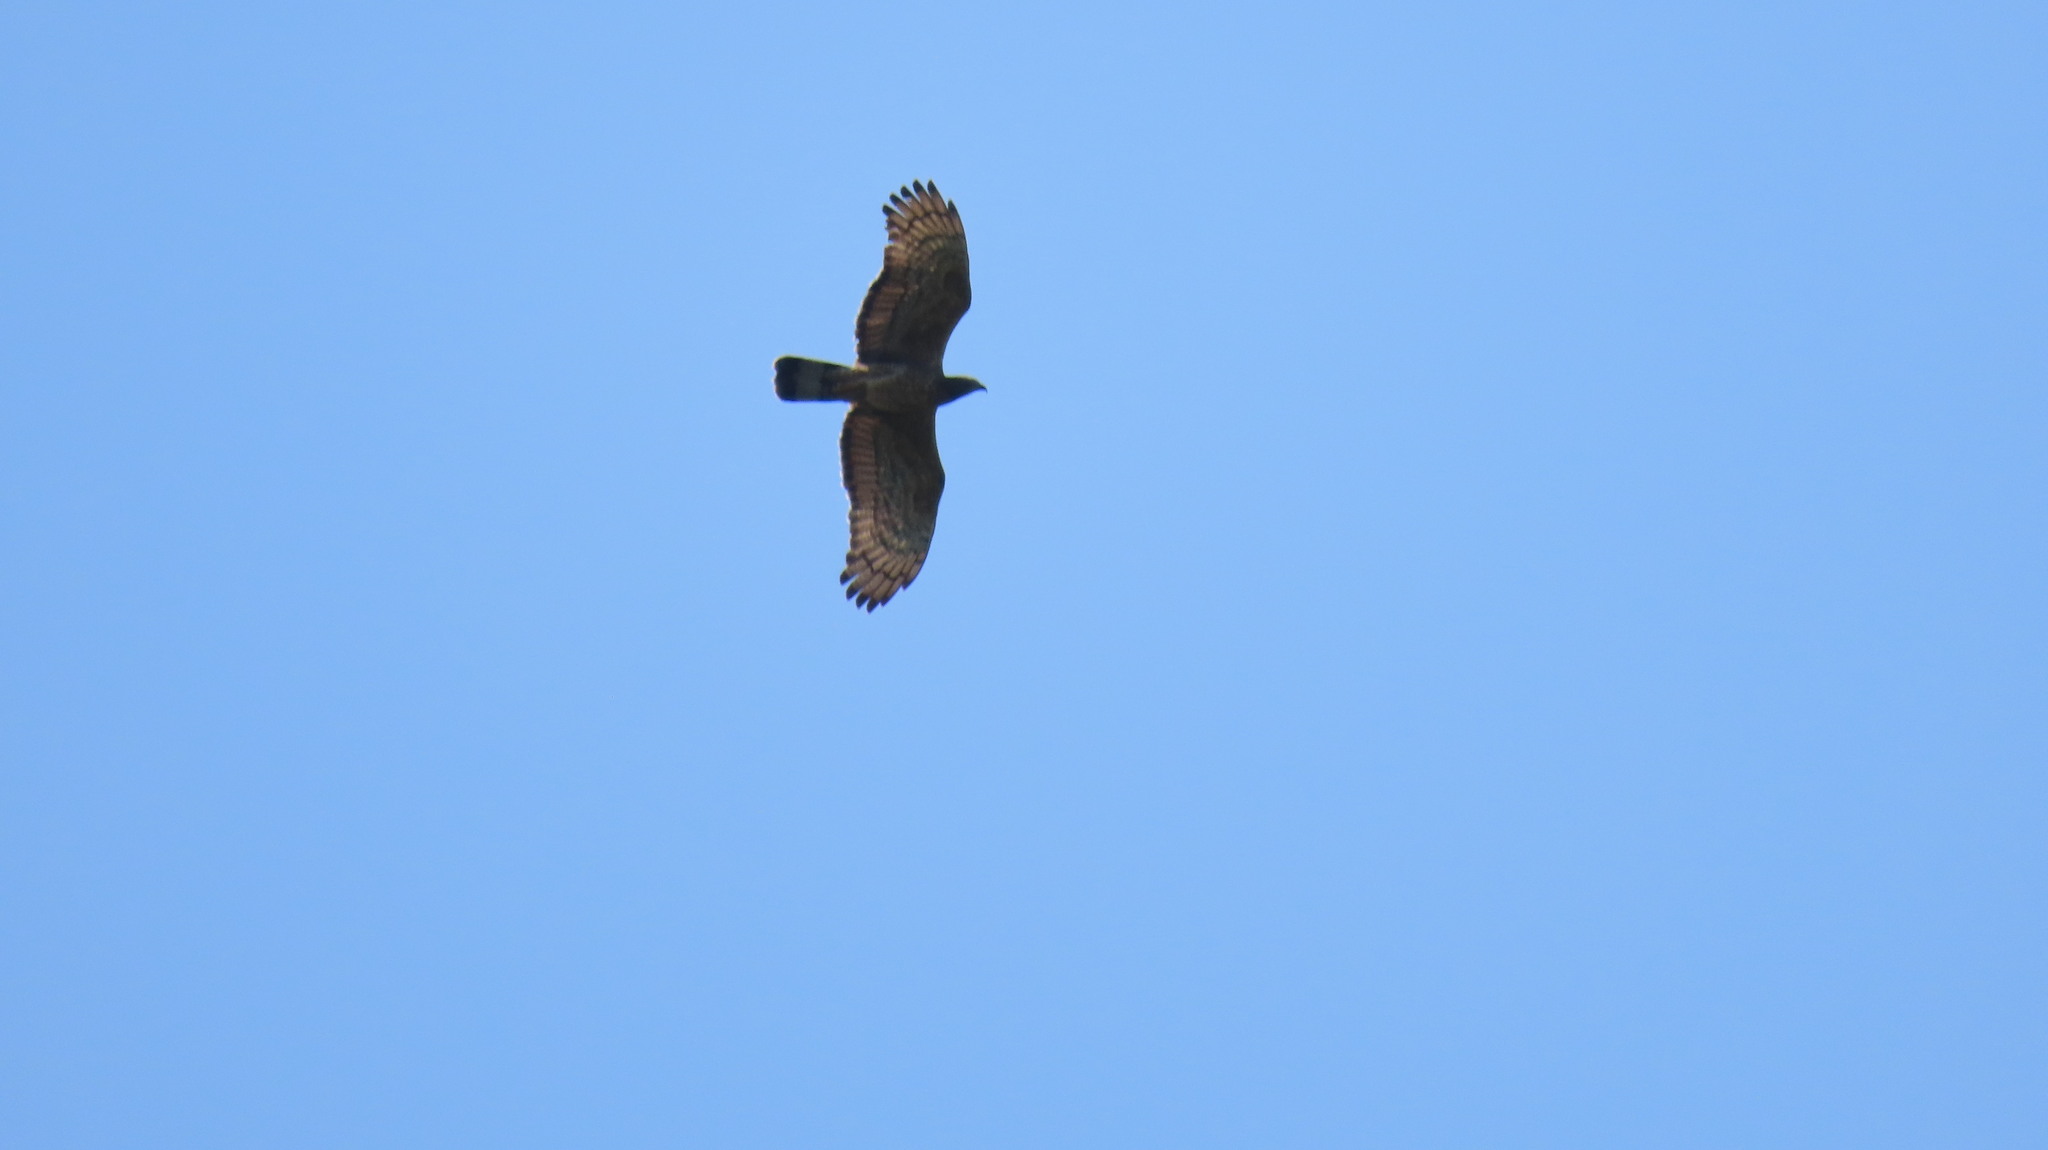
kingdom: Animalia
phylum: Chordata
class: Aves
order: Accipitriformes
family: Accipitridae
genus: Pernis
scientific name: Pernis ptilorhynchus
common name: Crested honey buzzard
